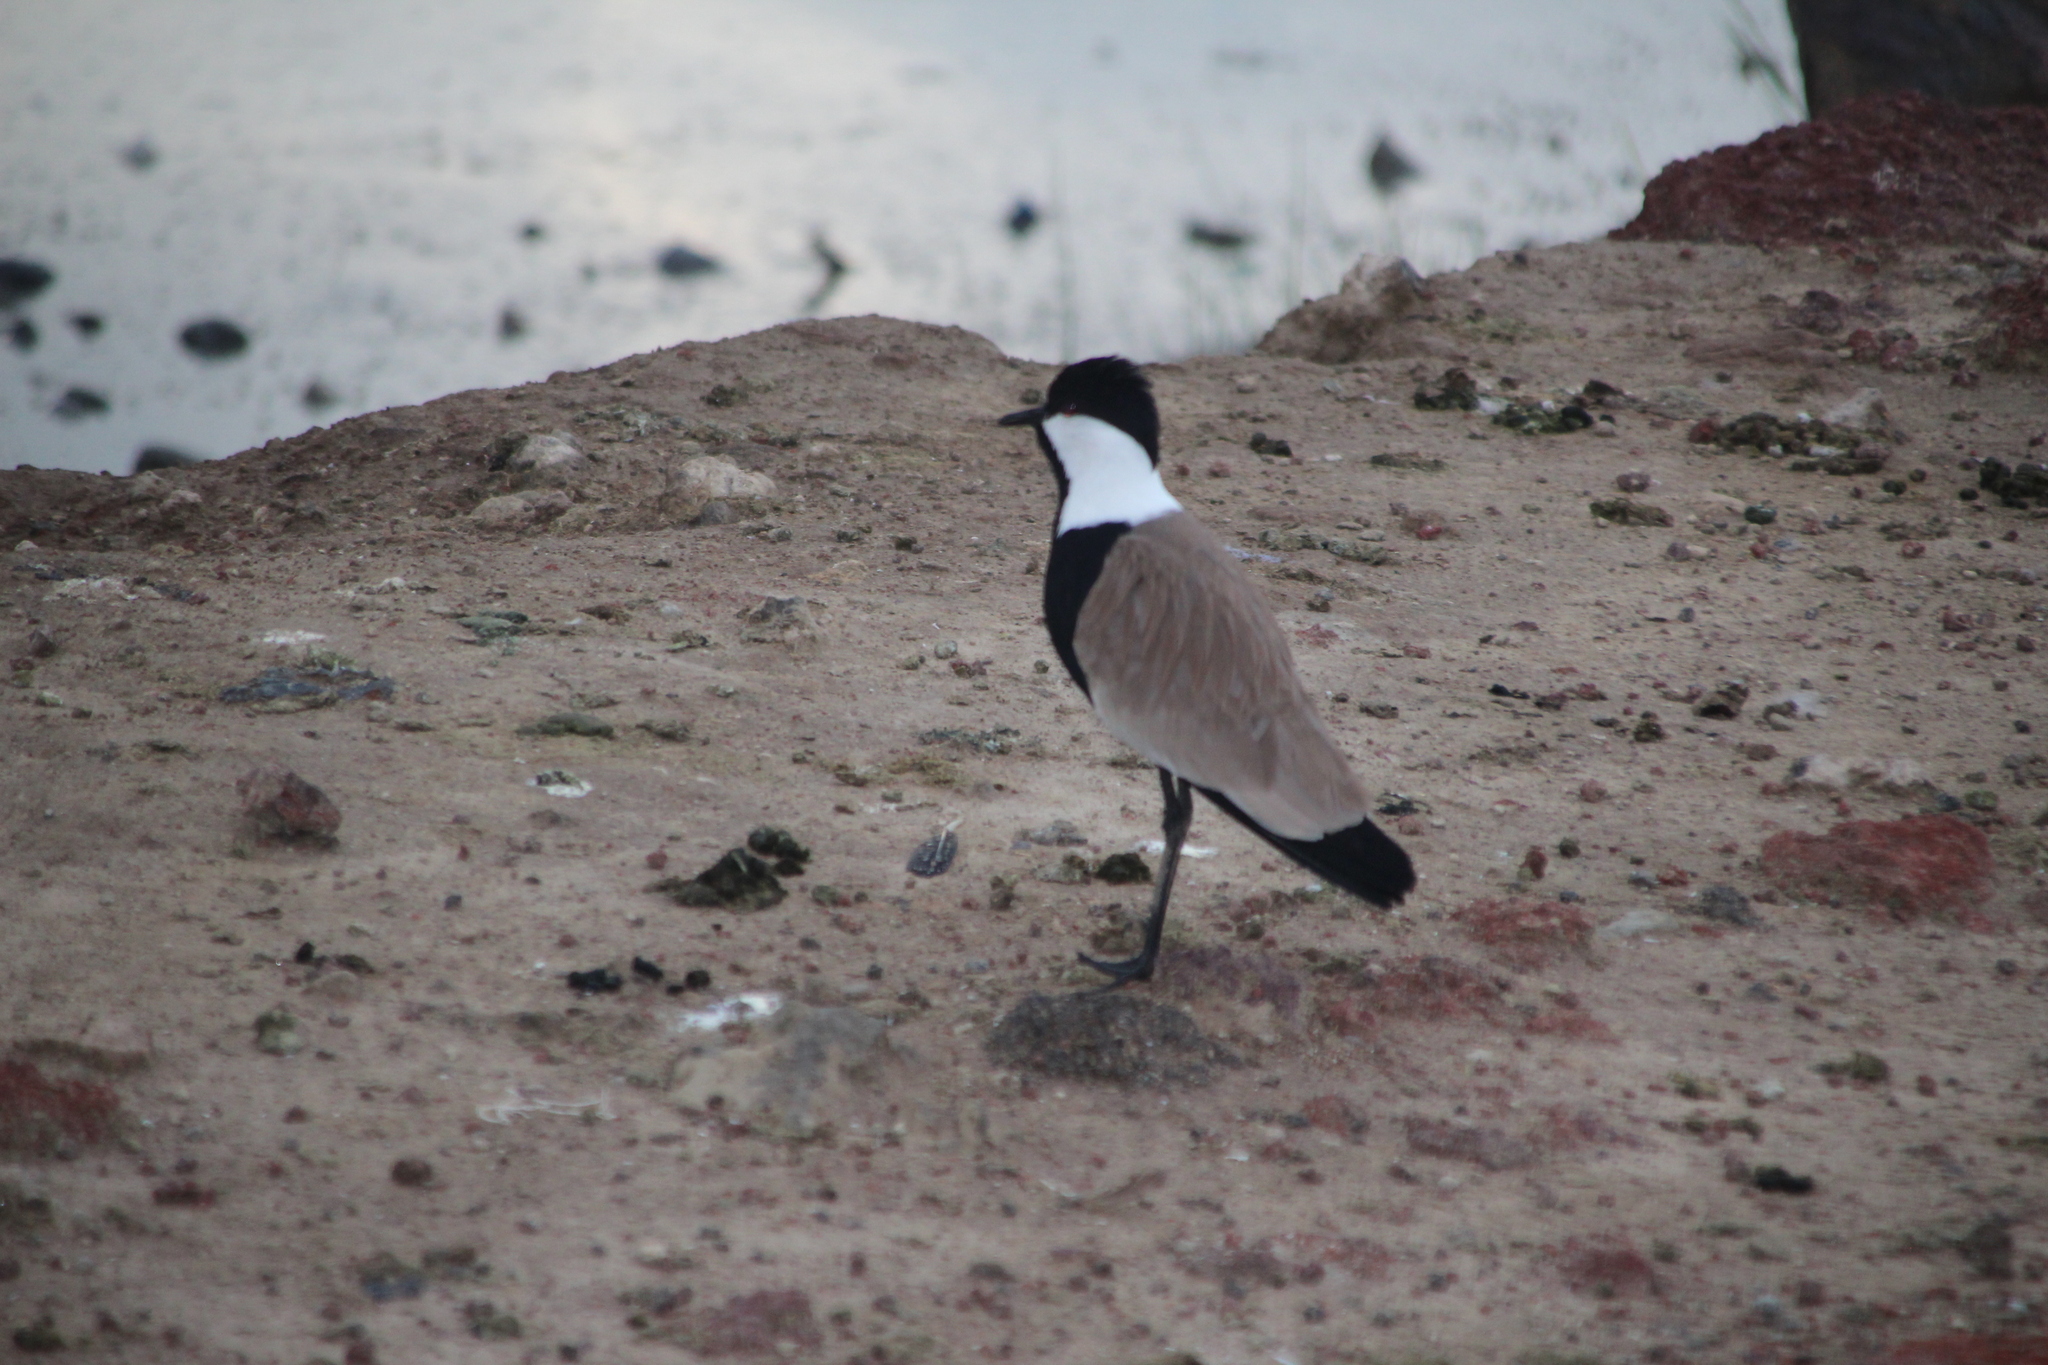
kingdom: Animalia
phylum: Chordata
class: Aves
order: Charadriiformes
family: Charadriidae
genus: Vanellus
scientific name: Vanellus spinosus
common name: Spur-winged lapwing
